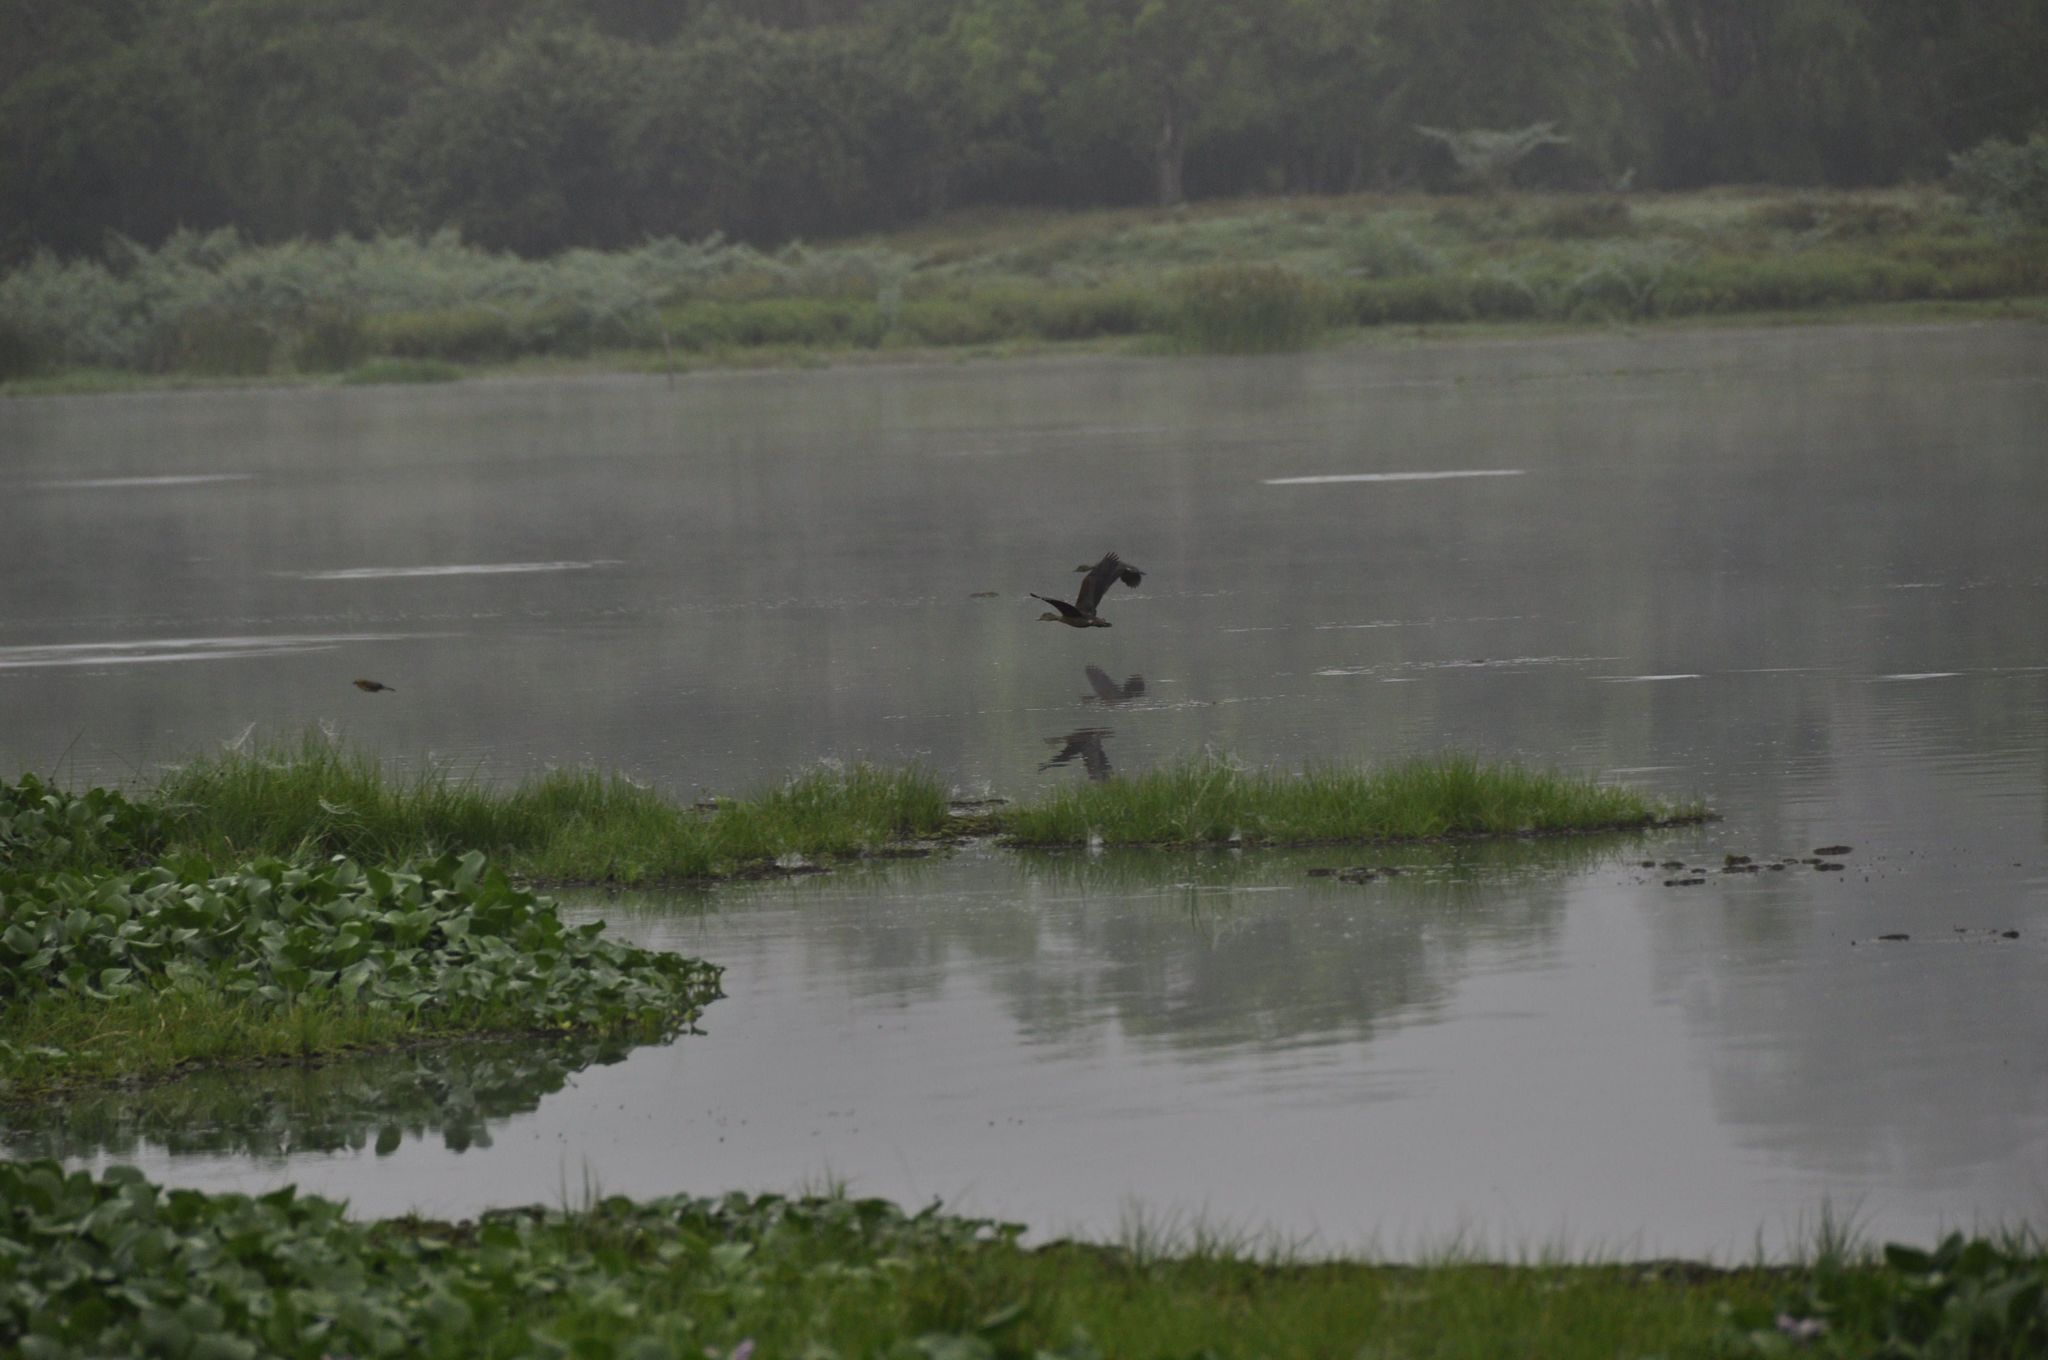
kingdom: Animalia
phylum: Chordata
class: Aves
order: Anseriformes
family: Anatidae
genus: Dendrocygna
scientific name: Dendrocygna javanica
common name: Lesser whistling-duck
